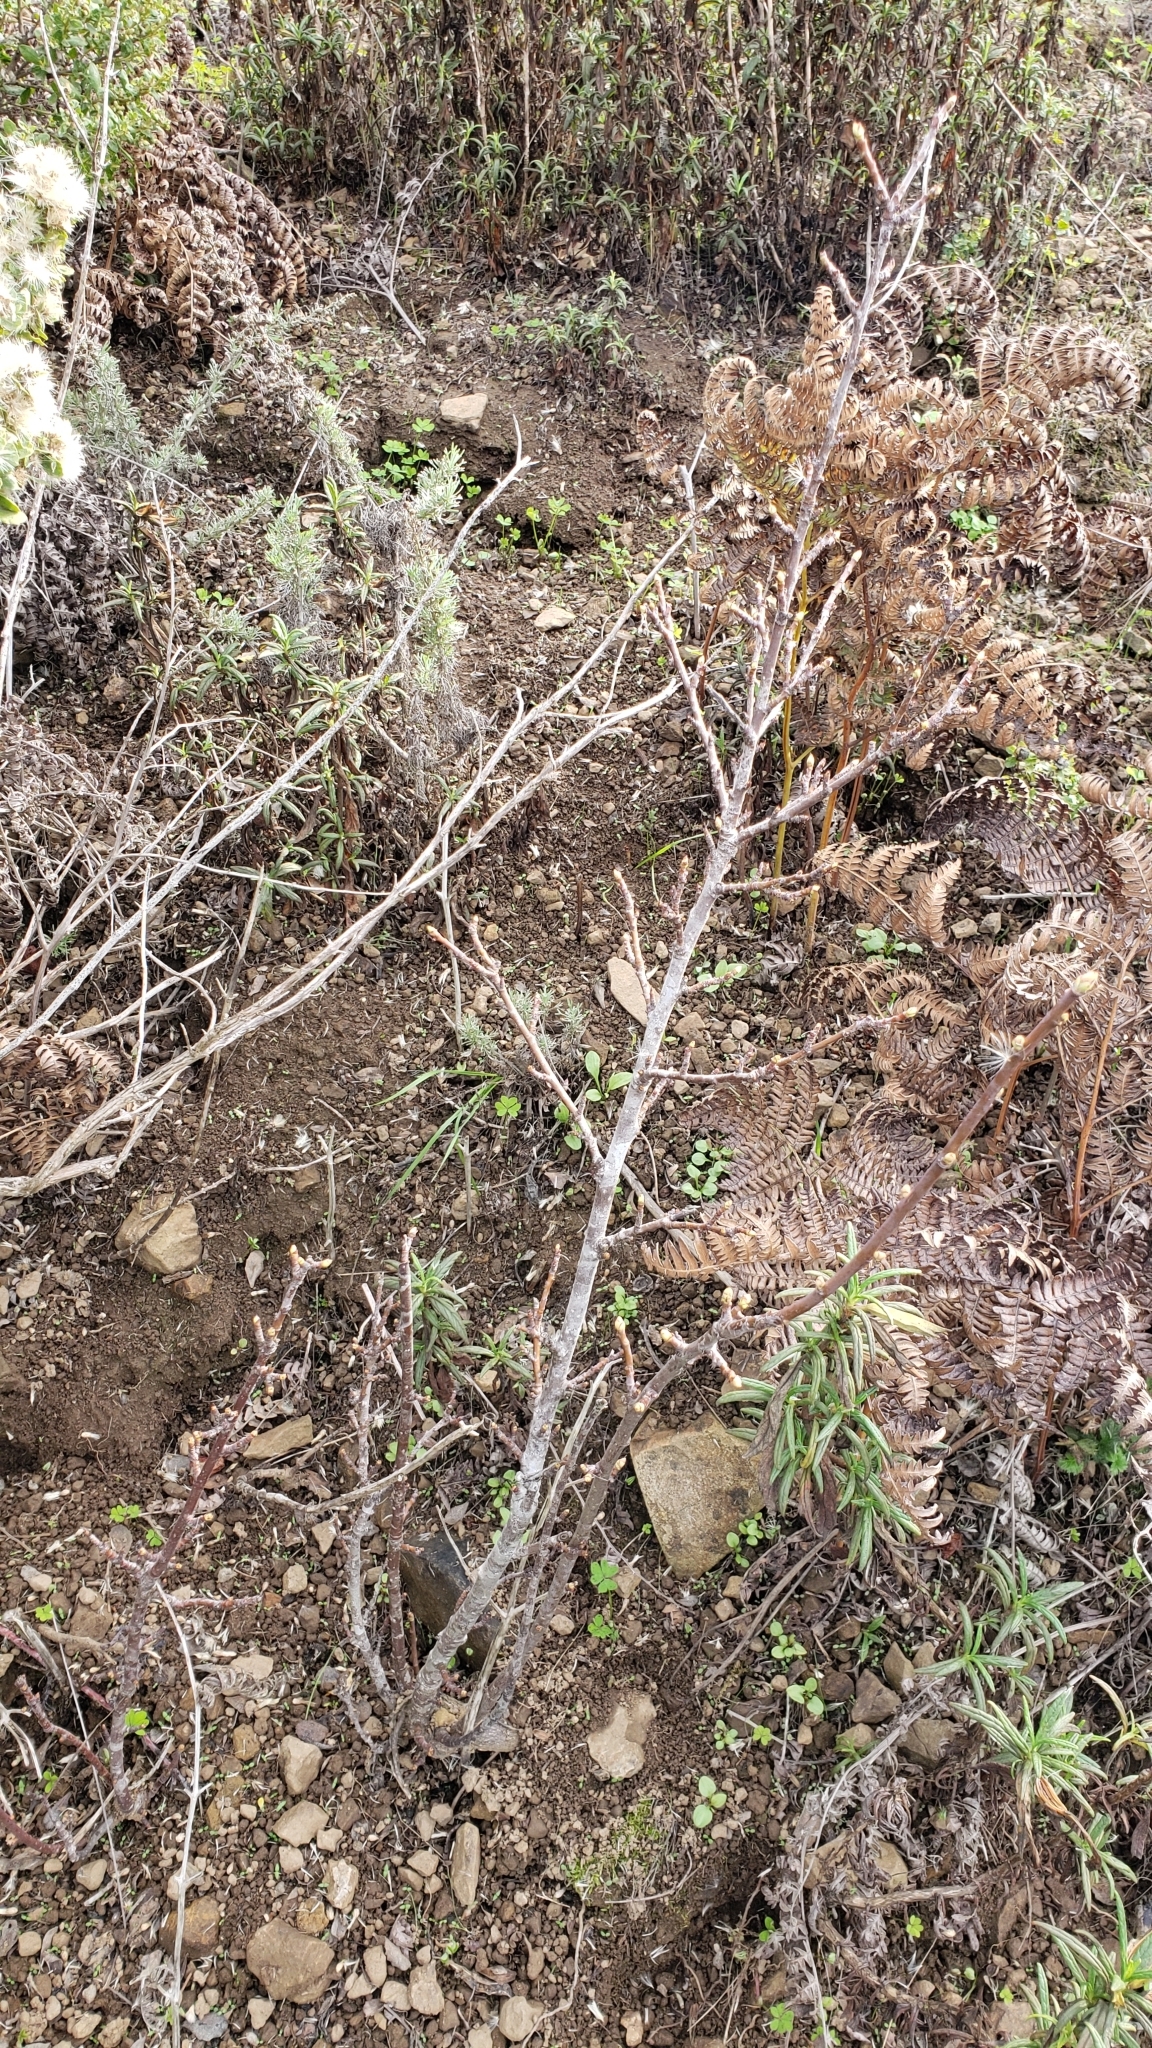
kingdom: Plantae
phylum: Tracheophyta
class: Magnoliopsida
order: Sapindales
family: Sapindaceae
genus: Aesculus
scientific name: Aesculus californica
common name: California buckeye
